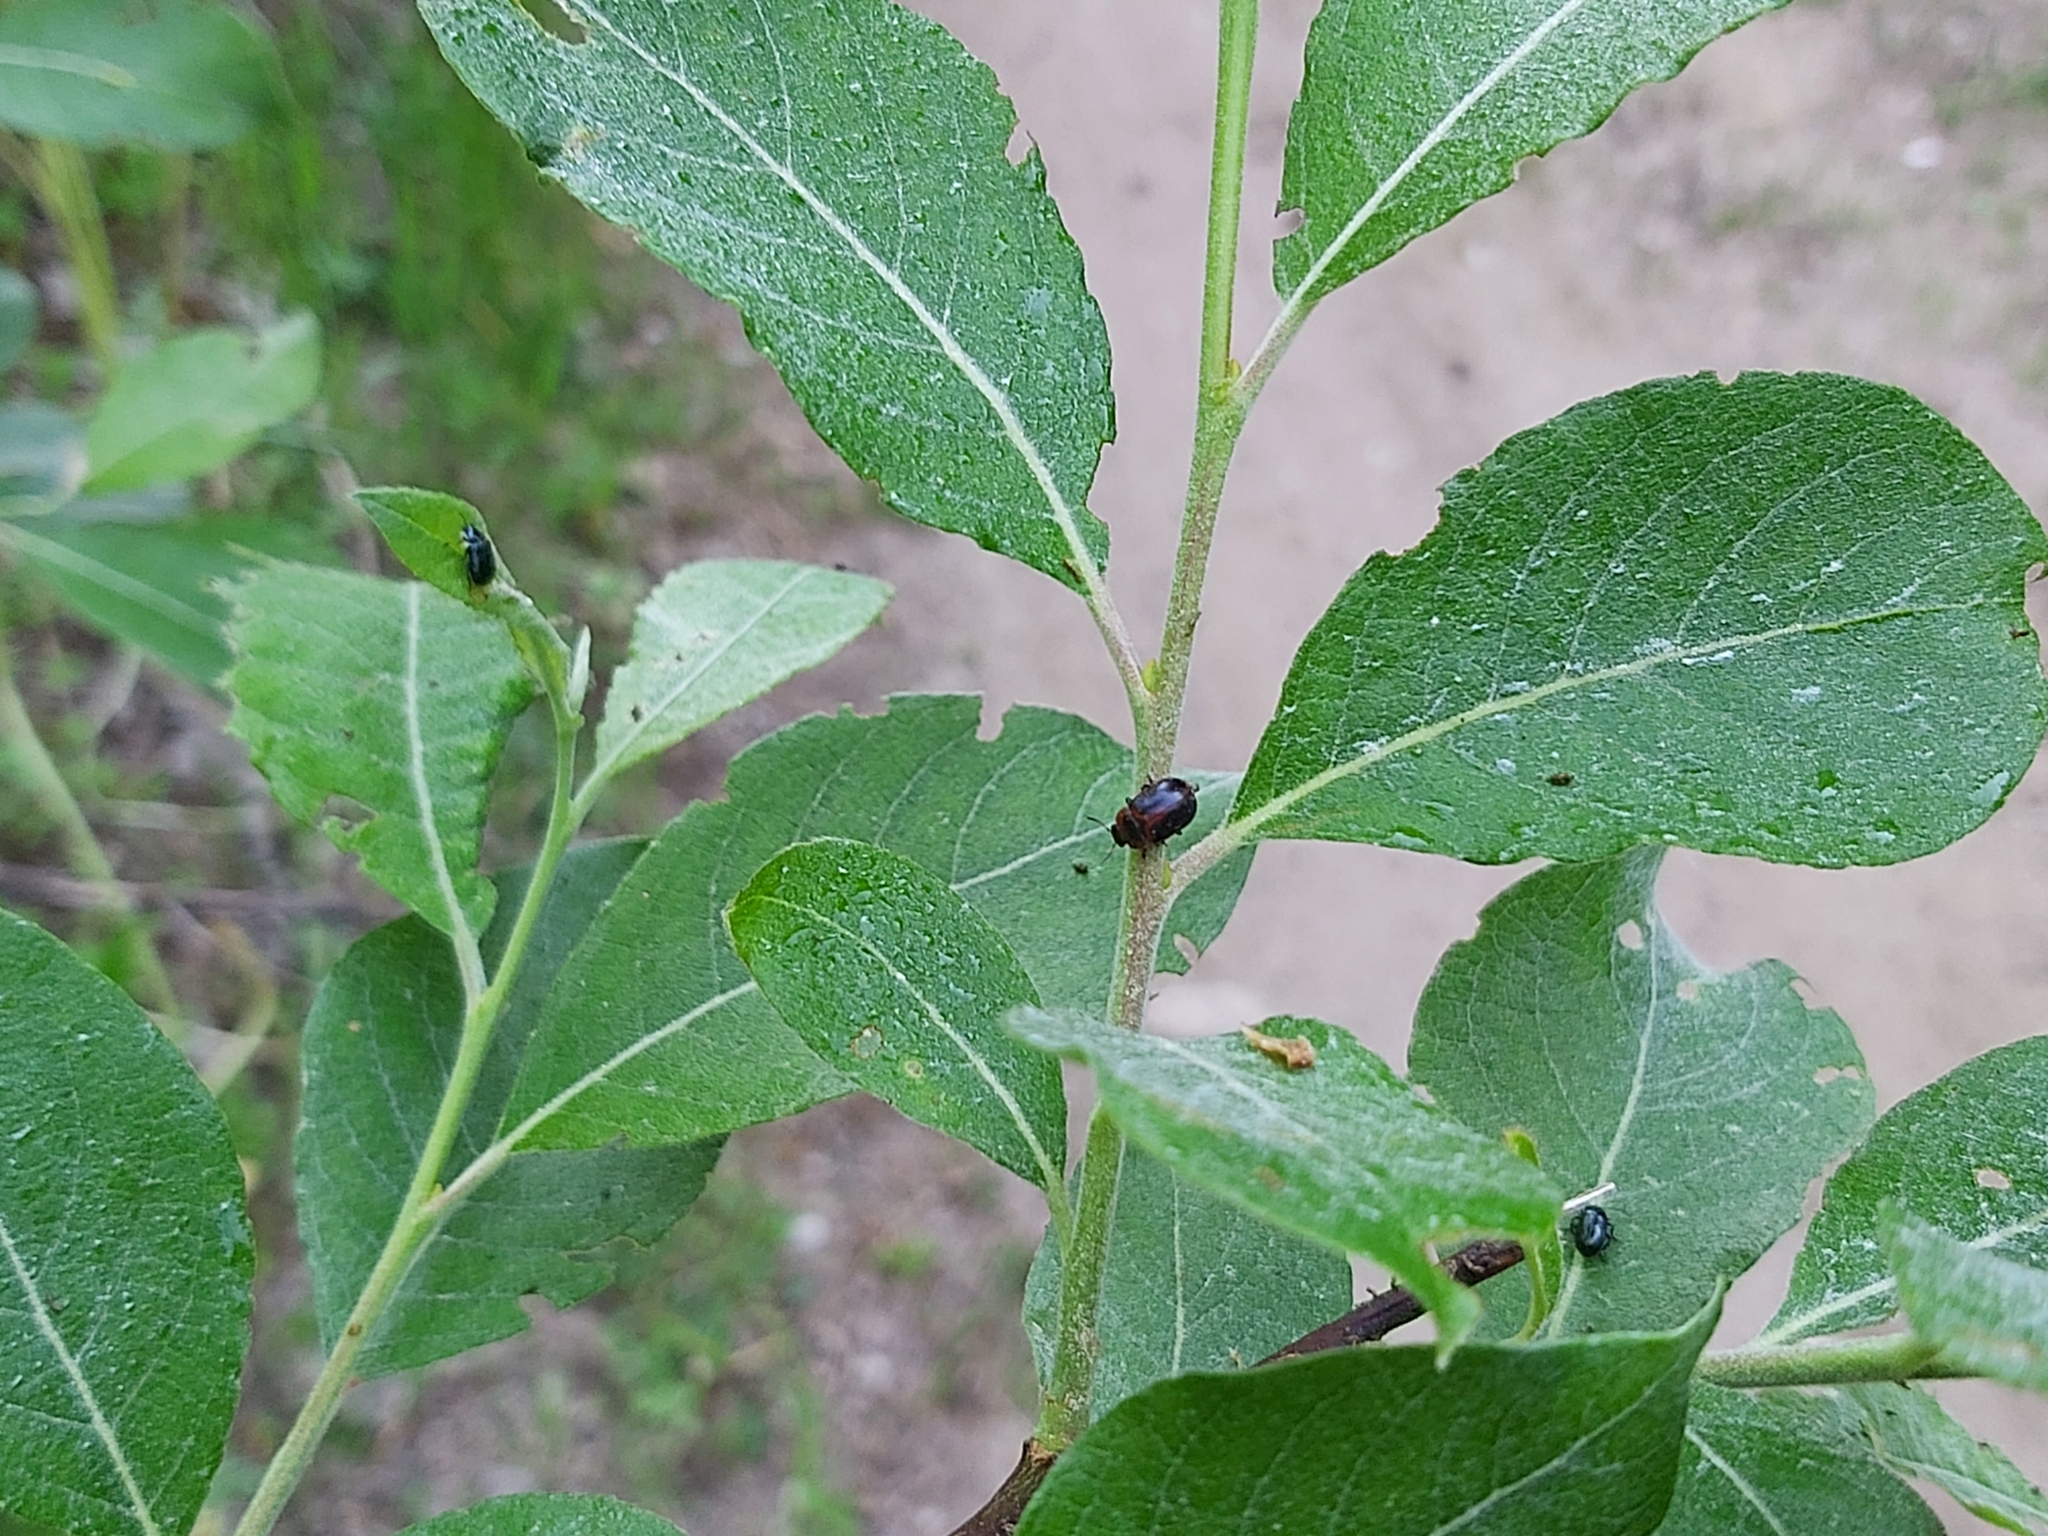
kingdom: Animalia
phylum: Arthropoda
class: Insecta
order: Coleoptera
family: Chrysomelidae
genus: Gonioctena
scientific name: Gonioctena viminalis
